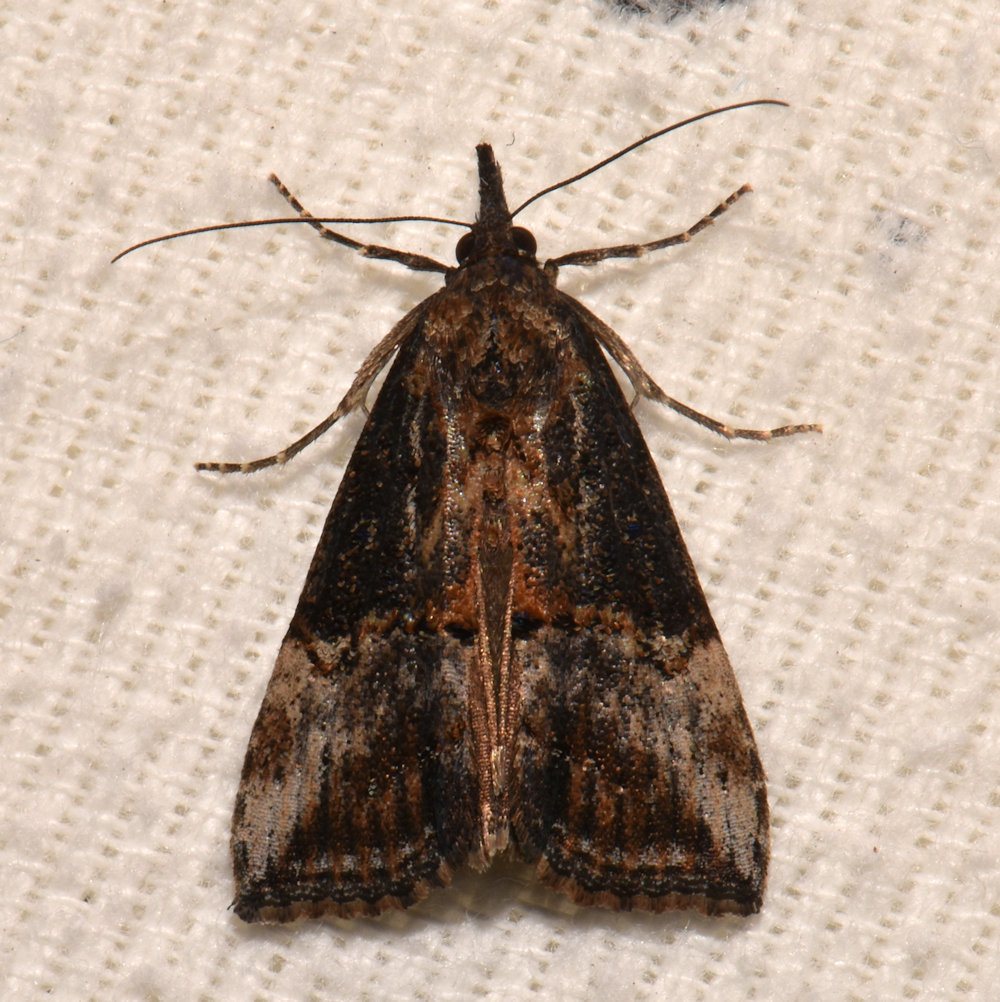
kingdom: Animalia
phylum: Arthropoda
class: Insecta
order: Lepidoptera
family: Erebidae
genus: Hypena
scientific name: Hypena scabra
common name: Green cloverworm
